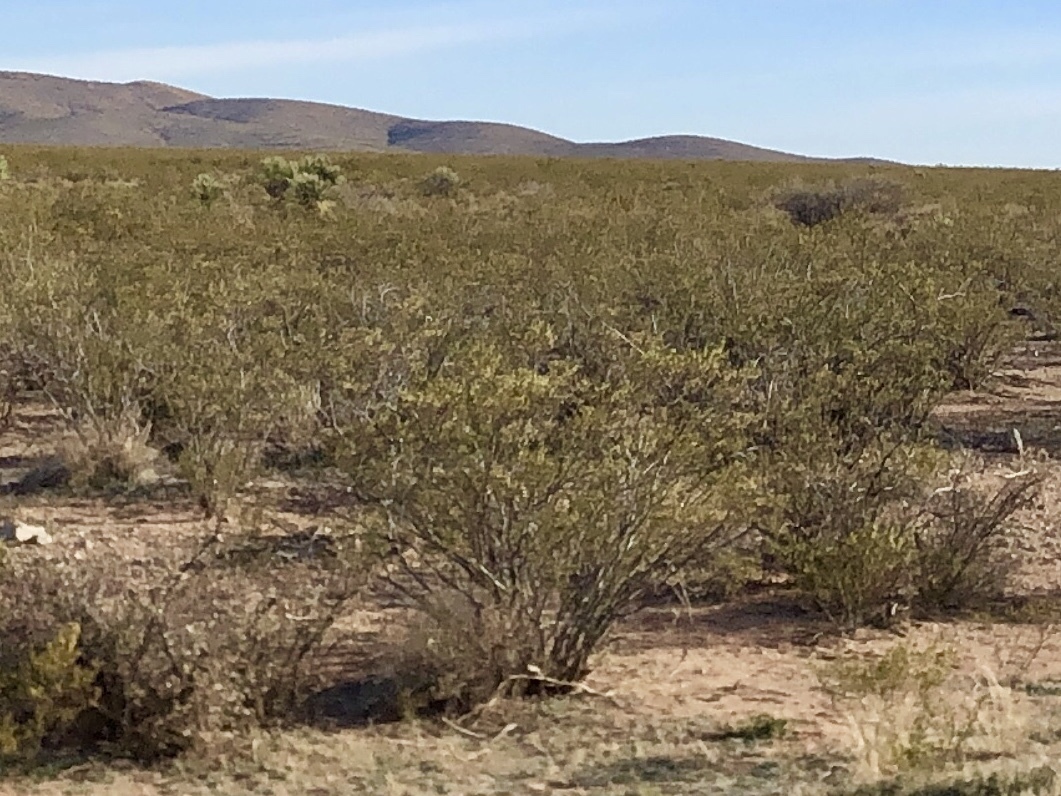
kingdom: Plantae
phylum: Tracheophyta
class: Magnoliopsida
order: Zygophyllales
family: Zygophyllaceae
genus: Larrea
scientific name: Larrea tridentata
